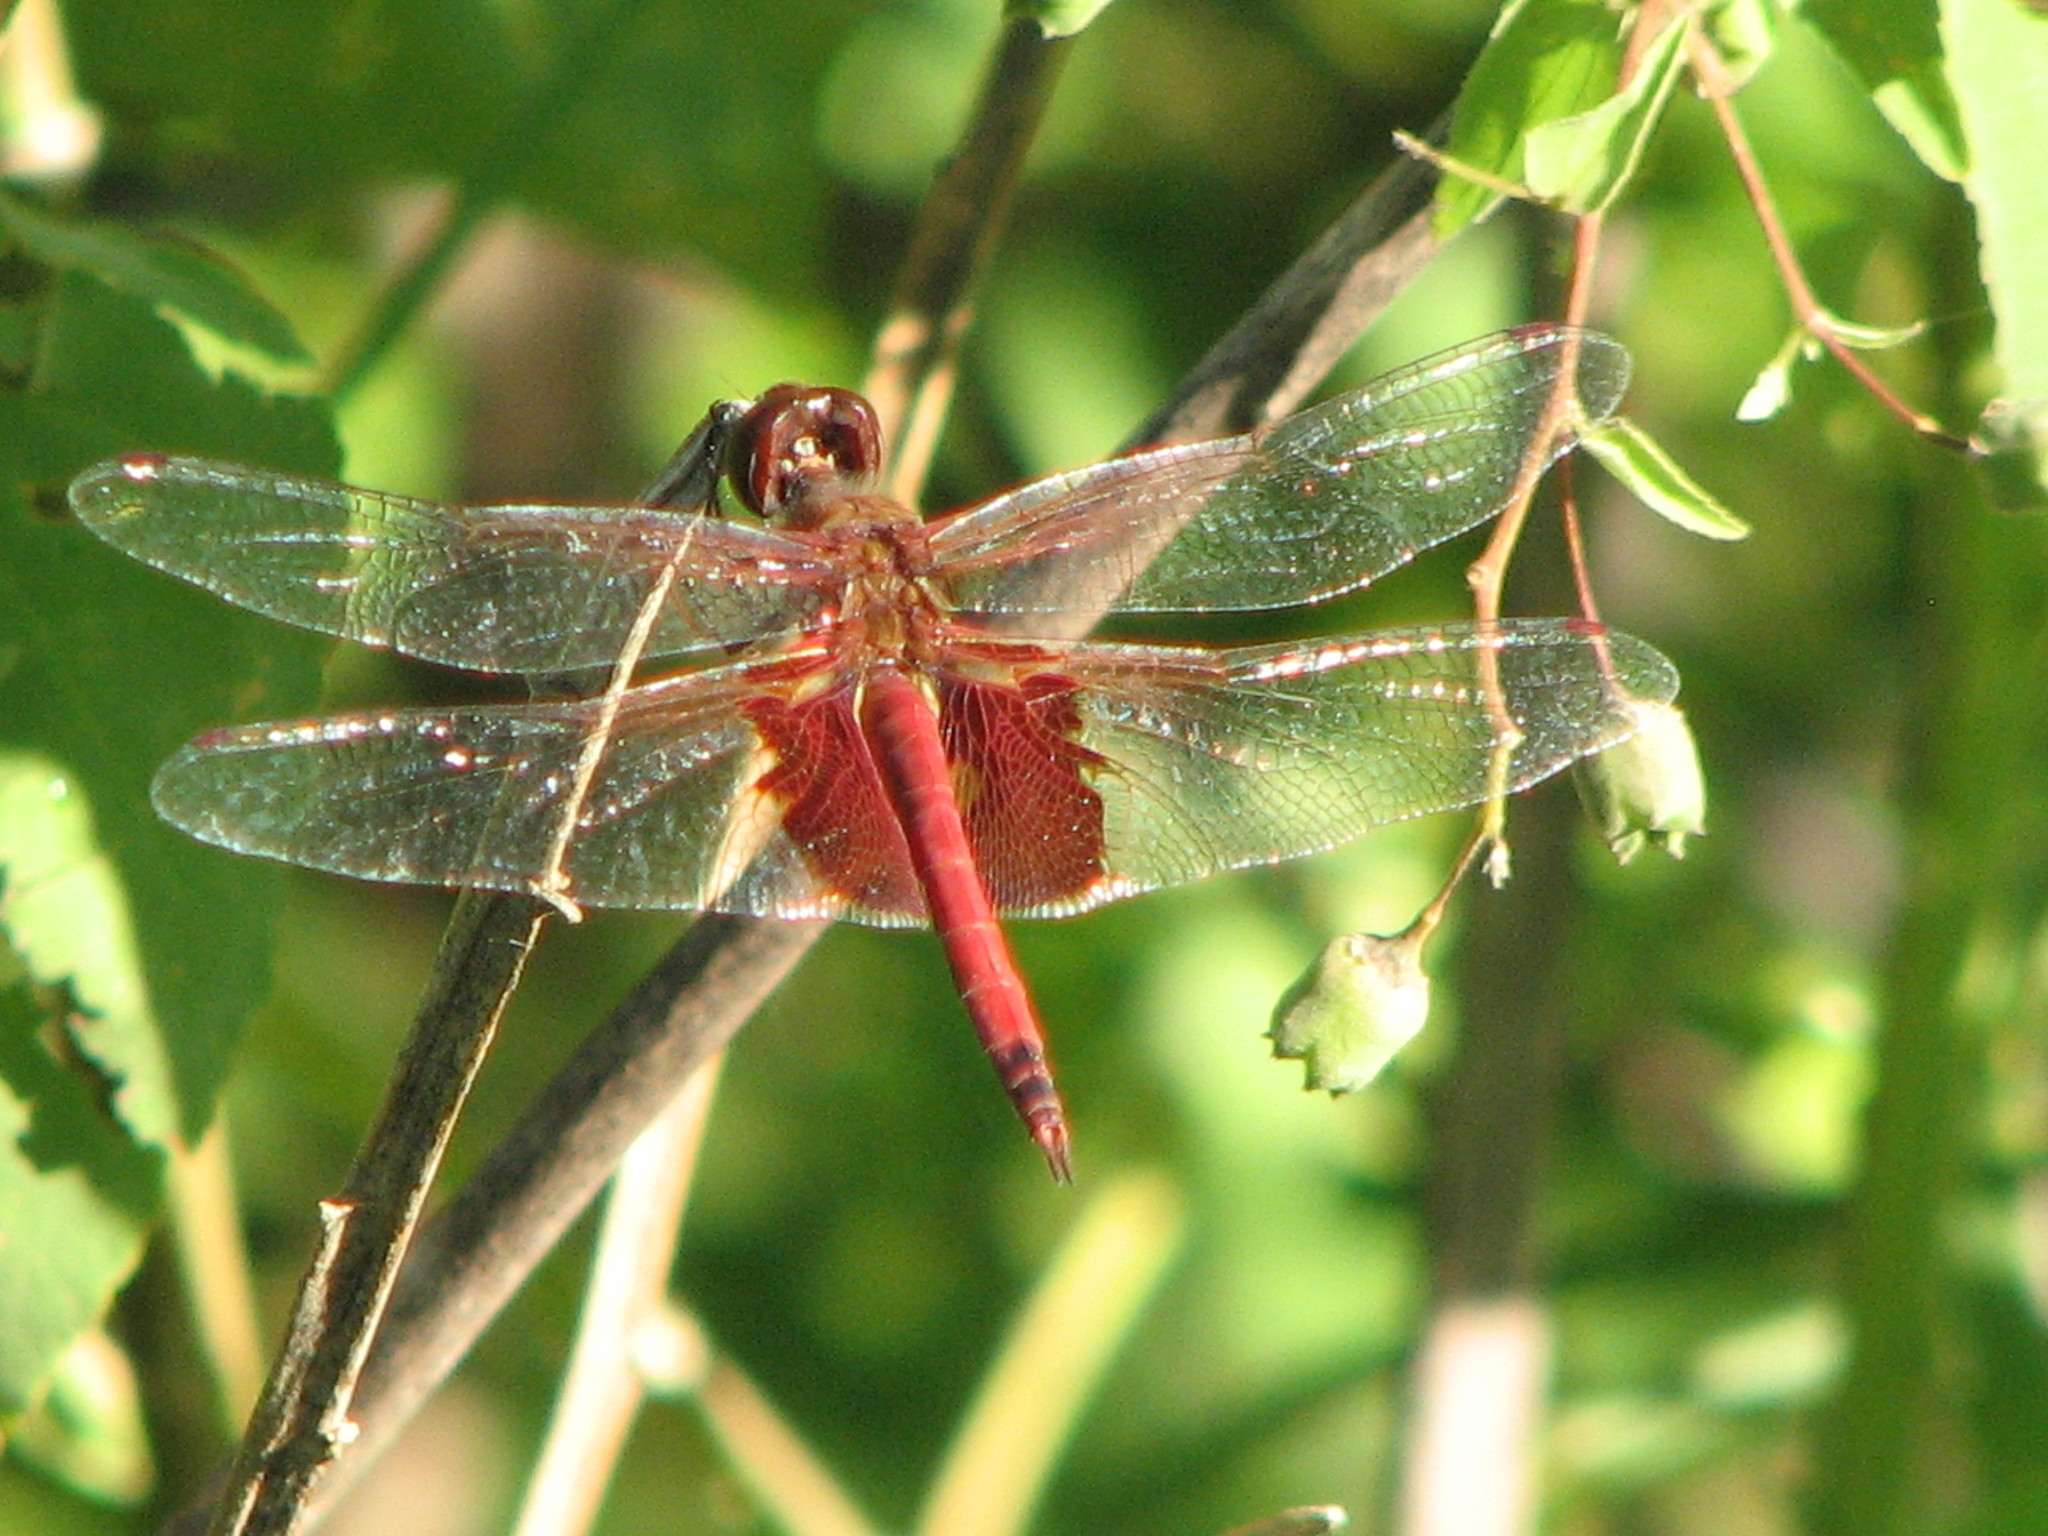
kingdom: Animalia
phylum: Arthropoda
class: Insecta
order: Odonata
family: Libellulidae
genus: Tramea
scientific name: Tramea onusta
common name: Red saddlebags
